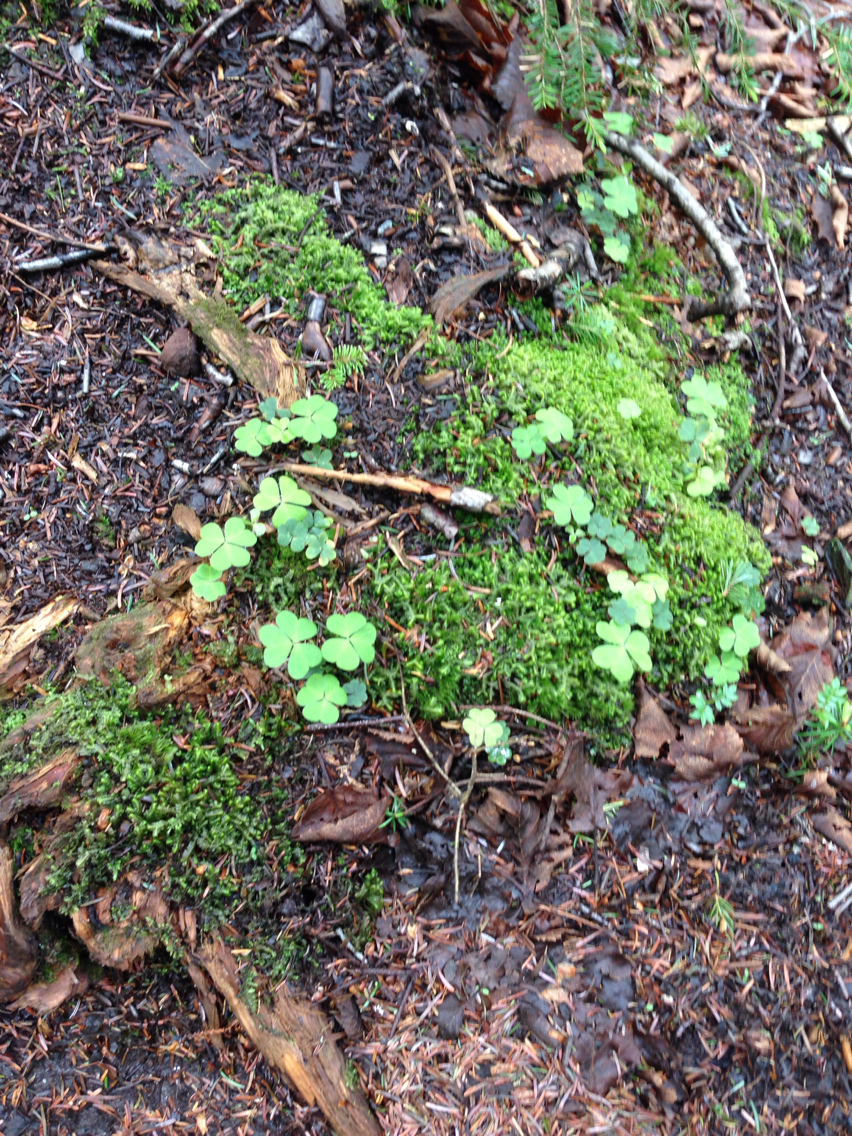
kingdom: Plantae
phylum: Tracheophyta
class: Magnoliopsida
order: Oxalidales
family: Oxalidaceae
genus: Oxalis
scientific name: Oxalis montana
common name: American wood-sorrel
